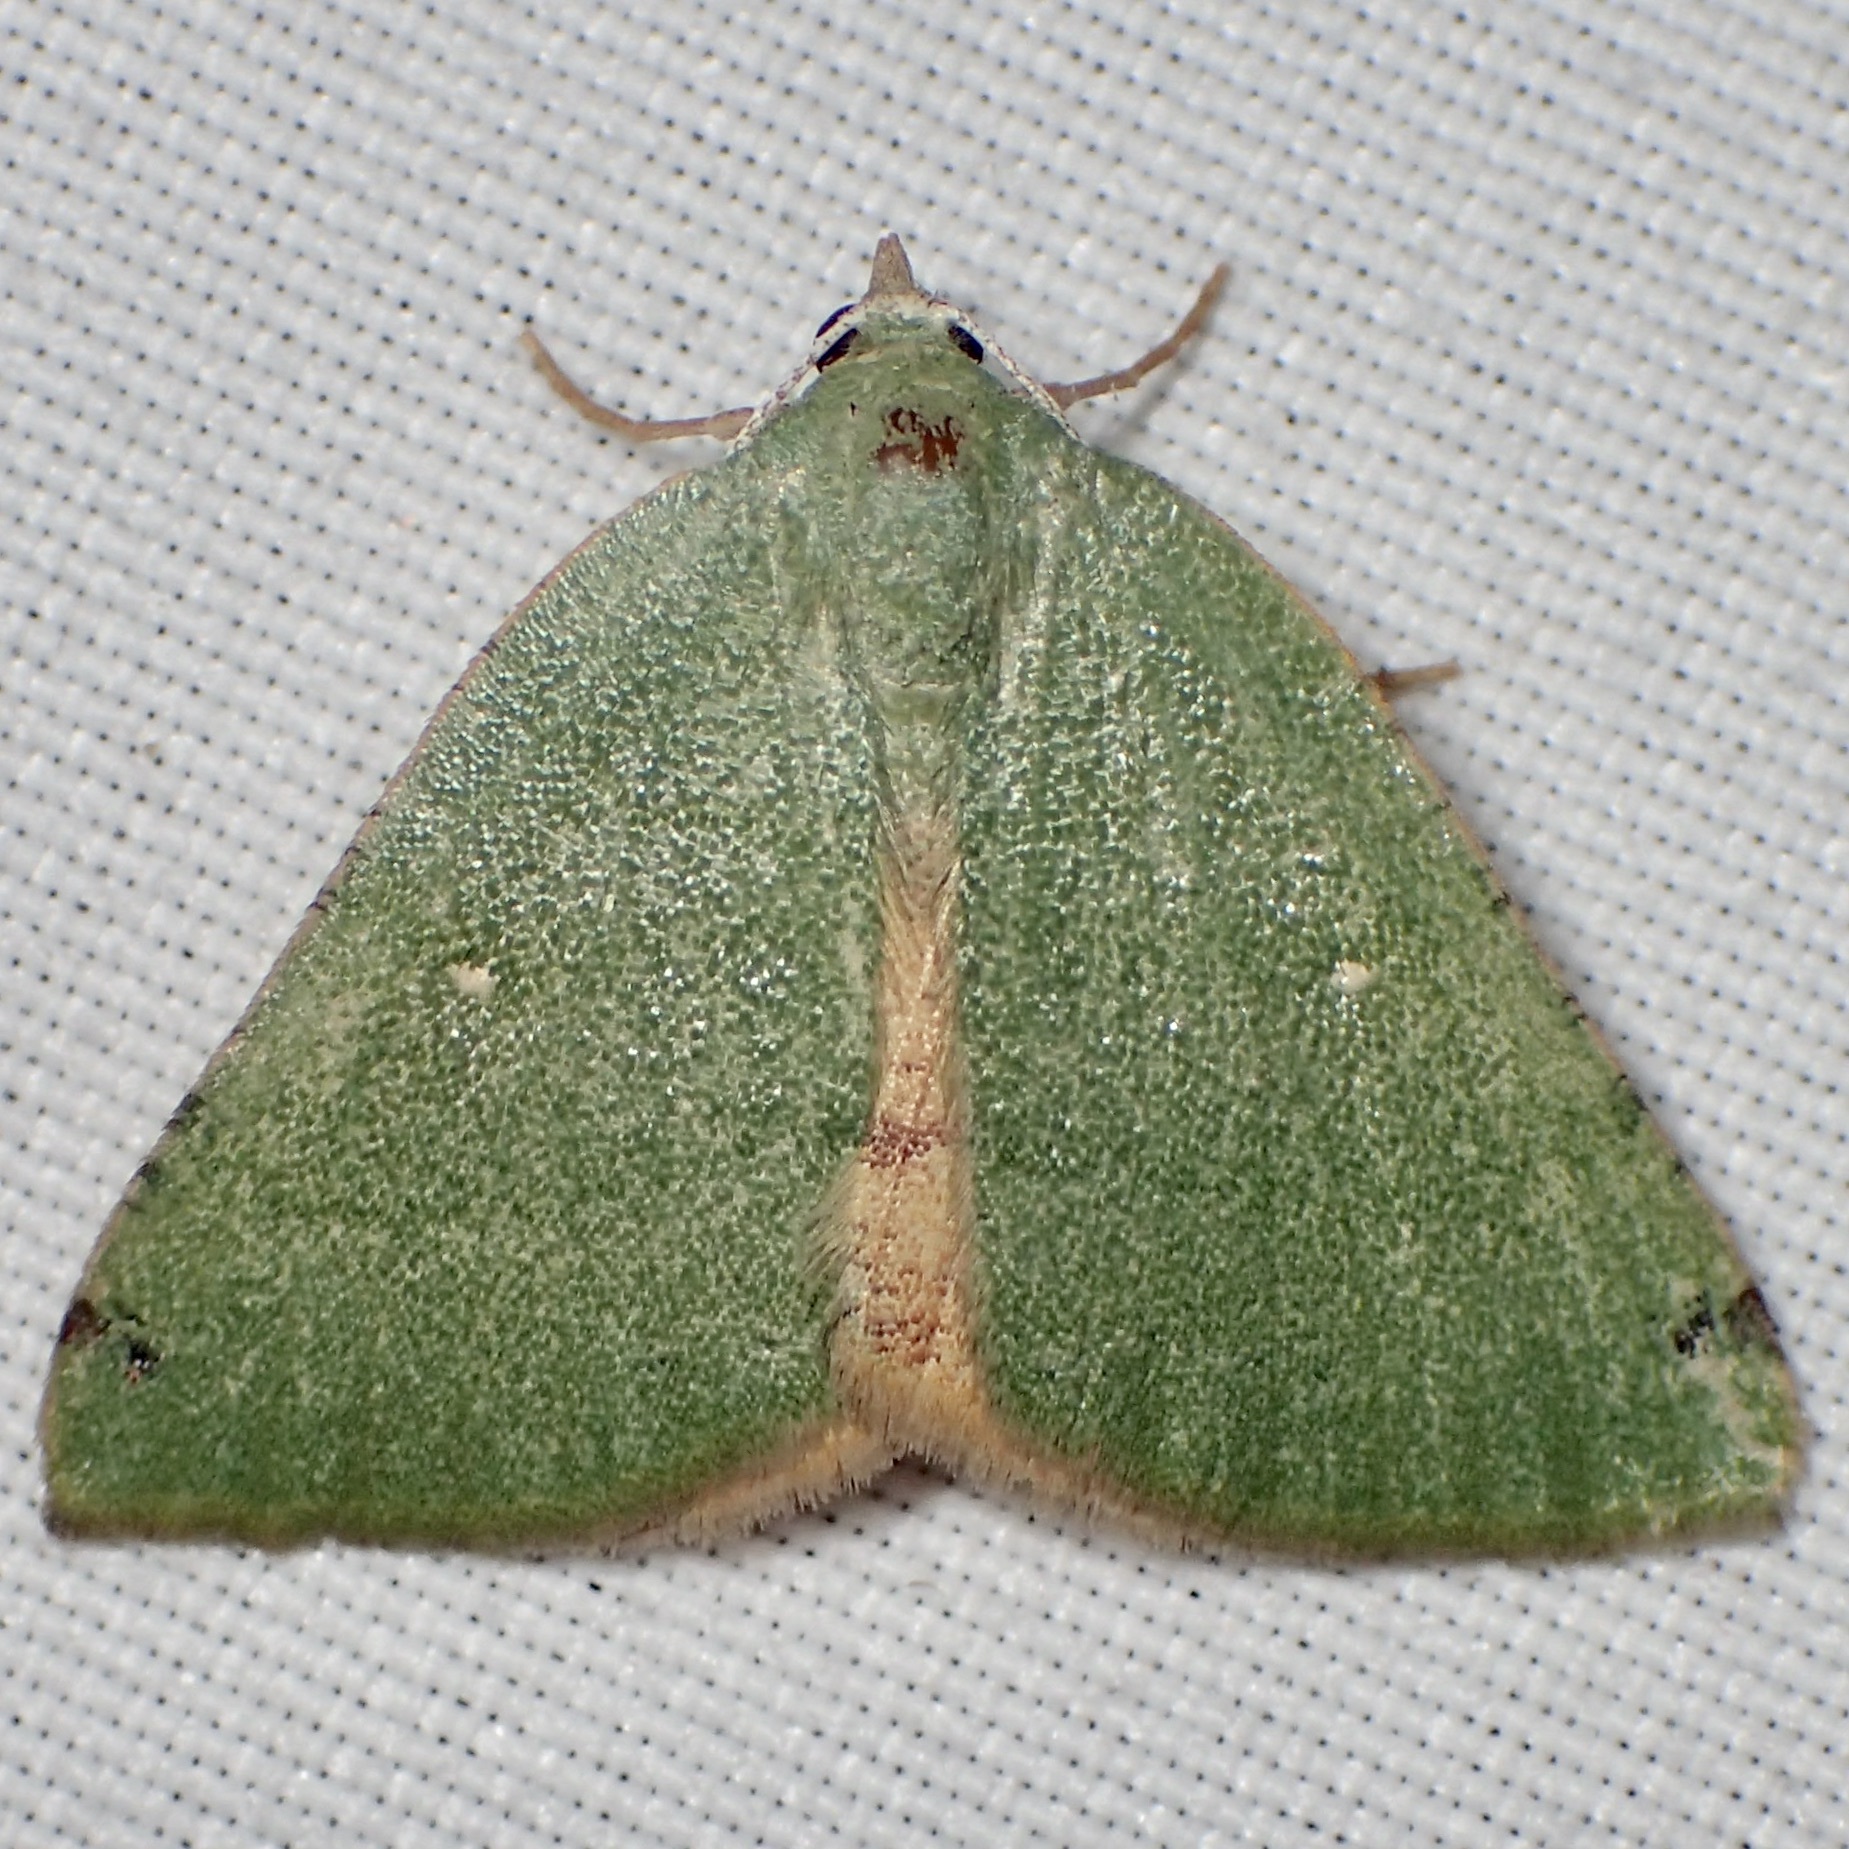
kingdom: Animalia
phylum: Arthropoda
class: Insecta
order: Lepidoptera
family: Geometridae
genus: Chloraspilates
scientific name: Chloraspilates bicoloraria
